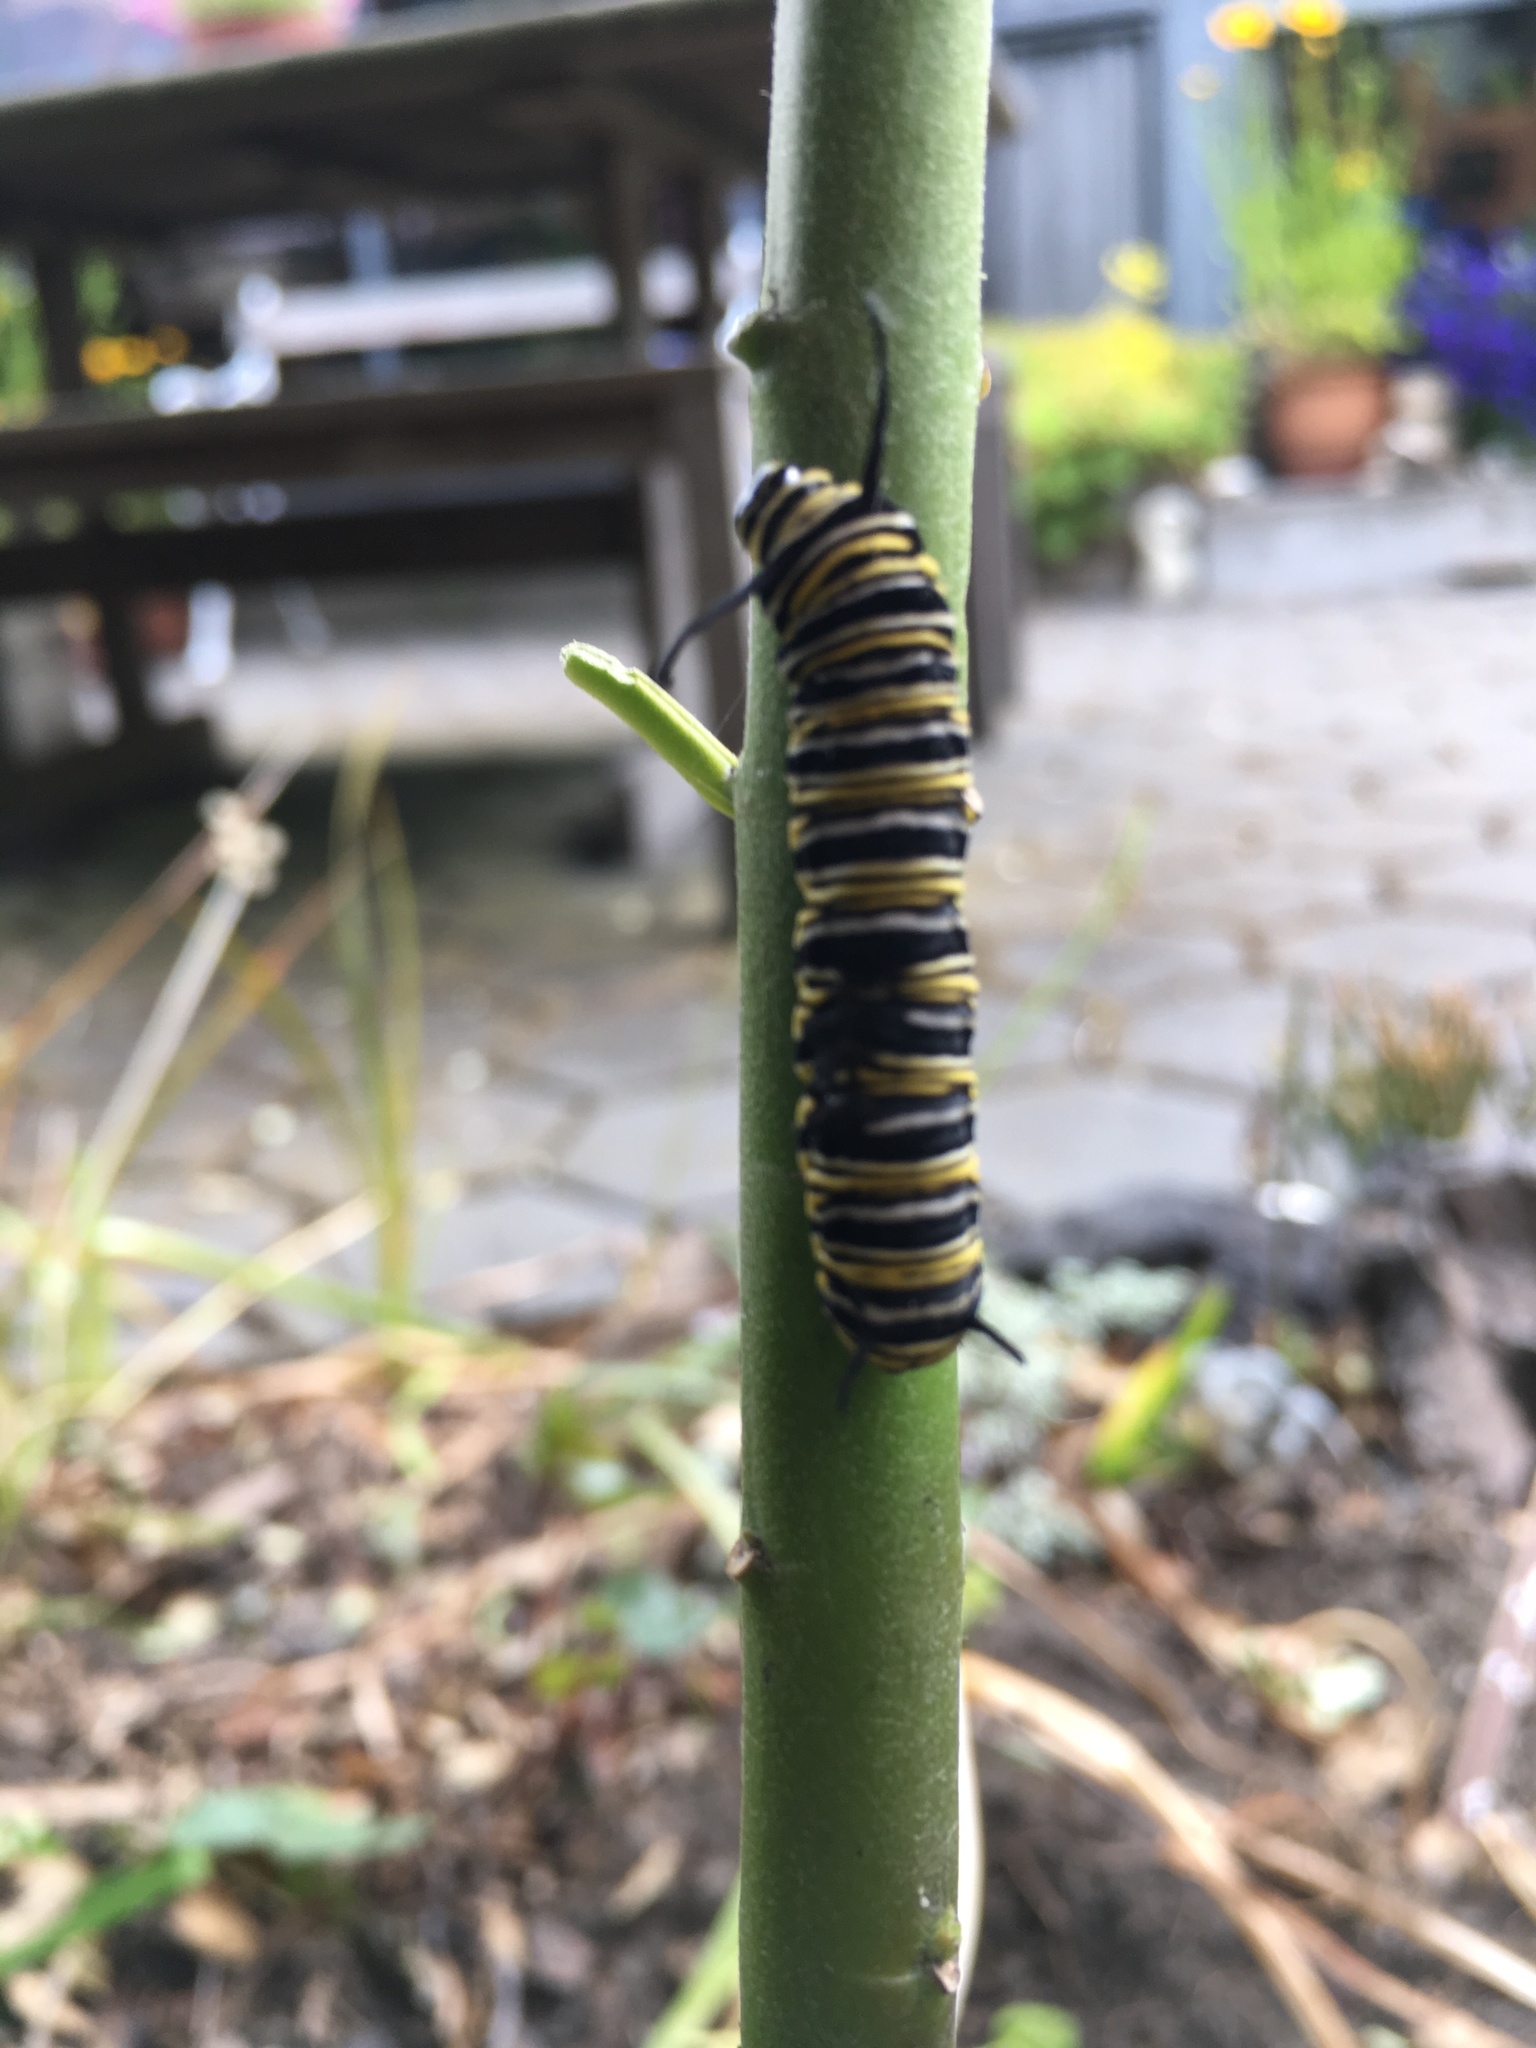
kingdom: Animalia
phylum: Arthropoda
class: Insecta
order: Lepidoptera
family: Nymphalidae
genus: Danaus
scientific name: Danaus plexippus
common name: Monarch
